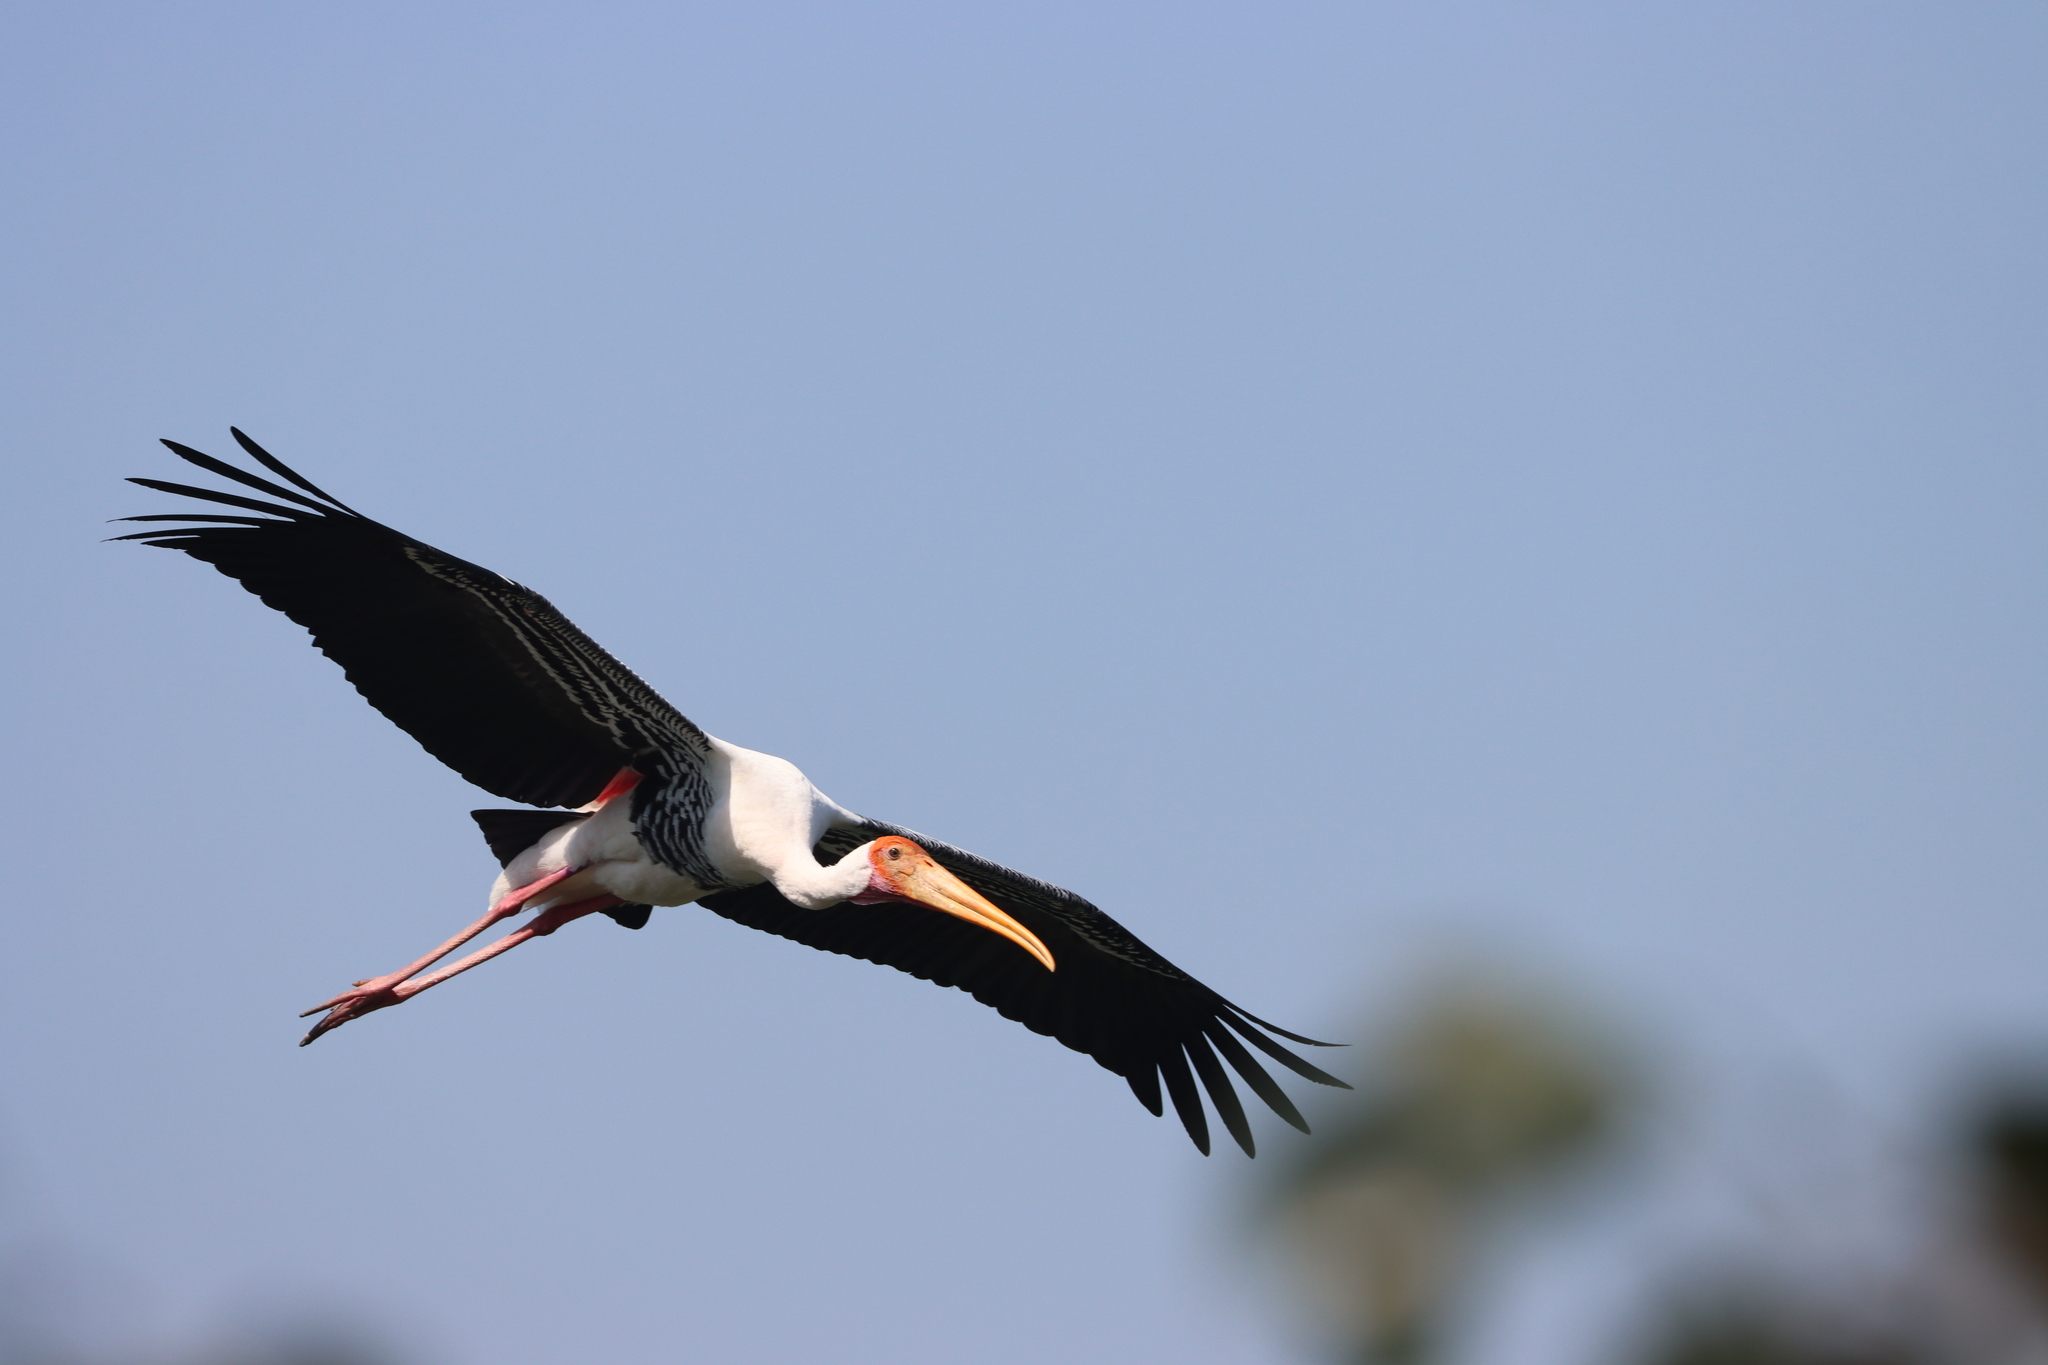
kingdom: Animalia
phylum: Chordata
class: Aves
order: Ciconiiformes
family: Ciconiidae
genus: Mycteria
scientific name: Mycteria leucocephala
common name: Painted stork
